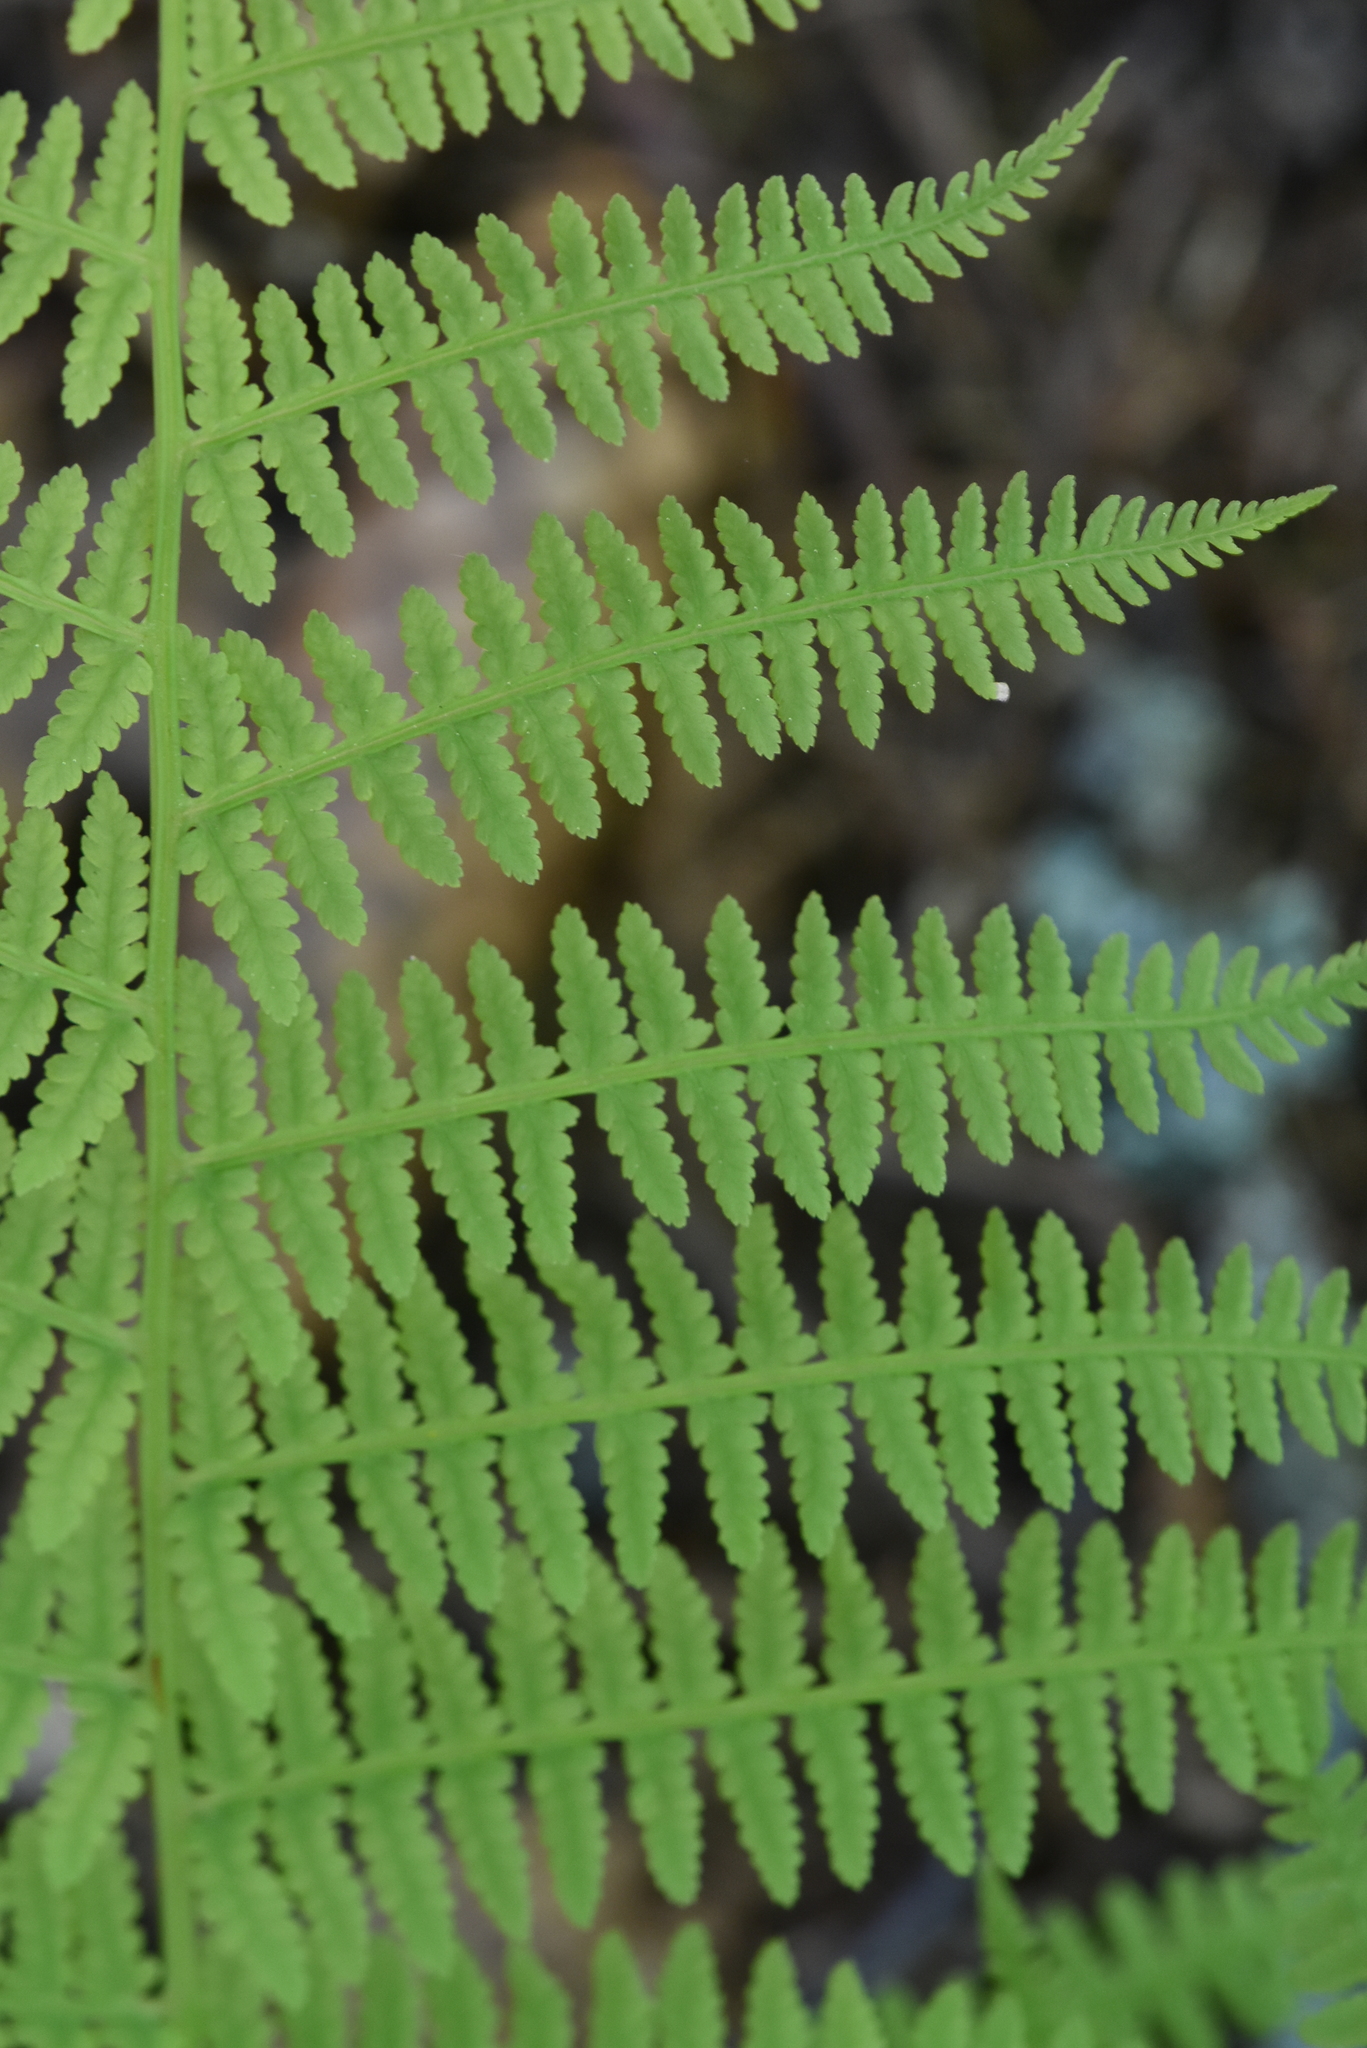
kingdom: Plantae
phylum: Tracheophyta
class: Polypodiopsida
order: Polypodiales
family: Athyriaceae
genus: Athyrium
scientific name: Athyrium filix-femina
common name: Lady fern
